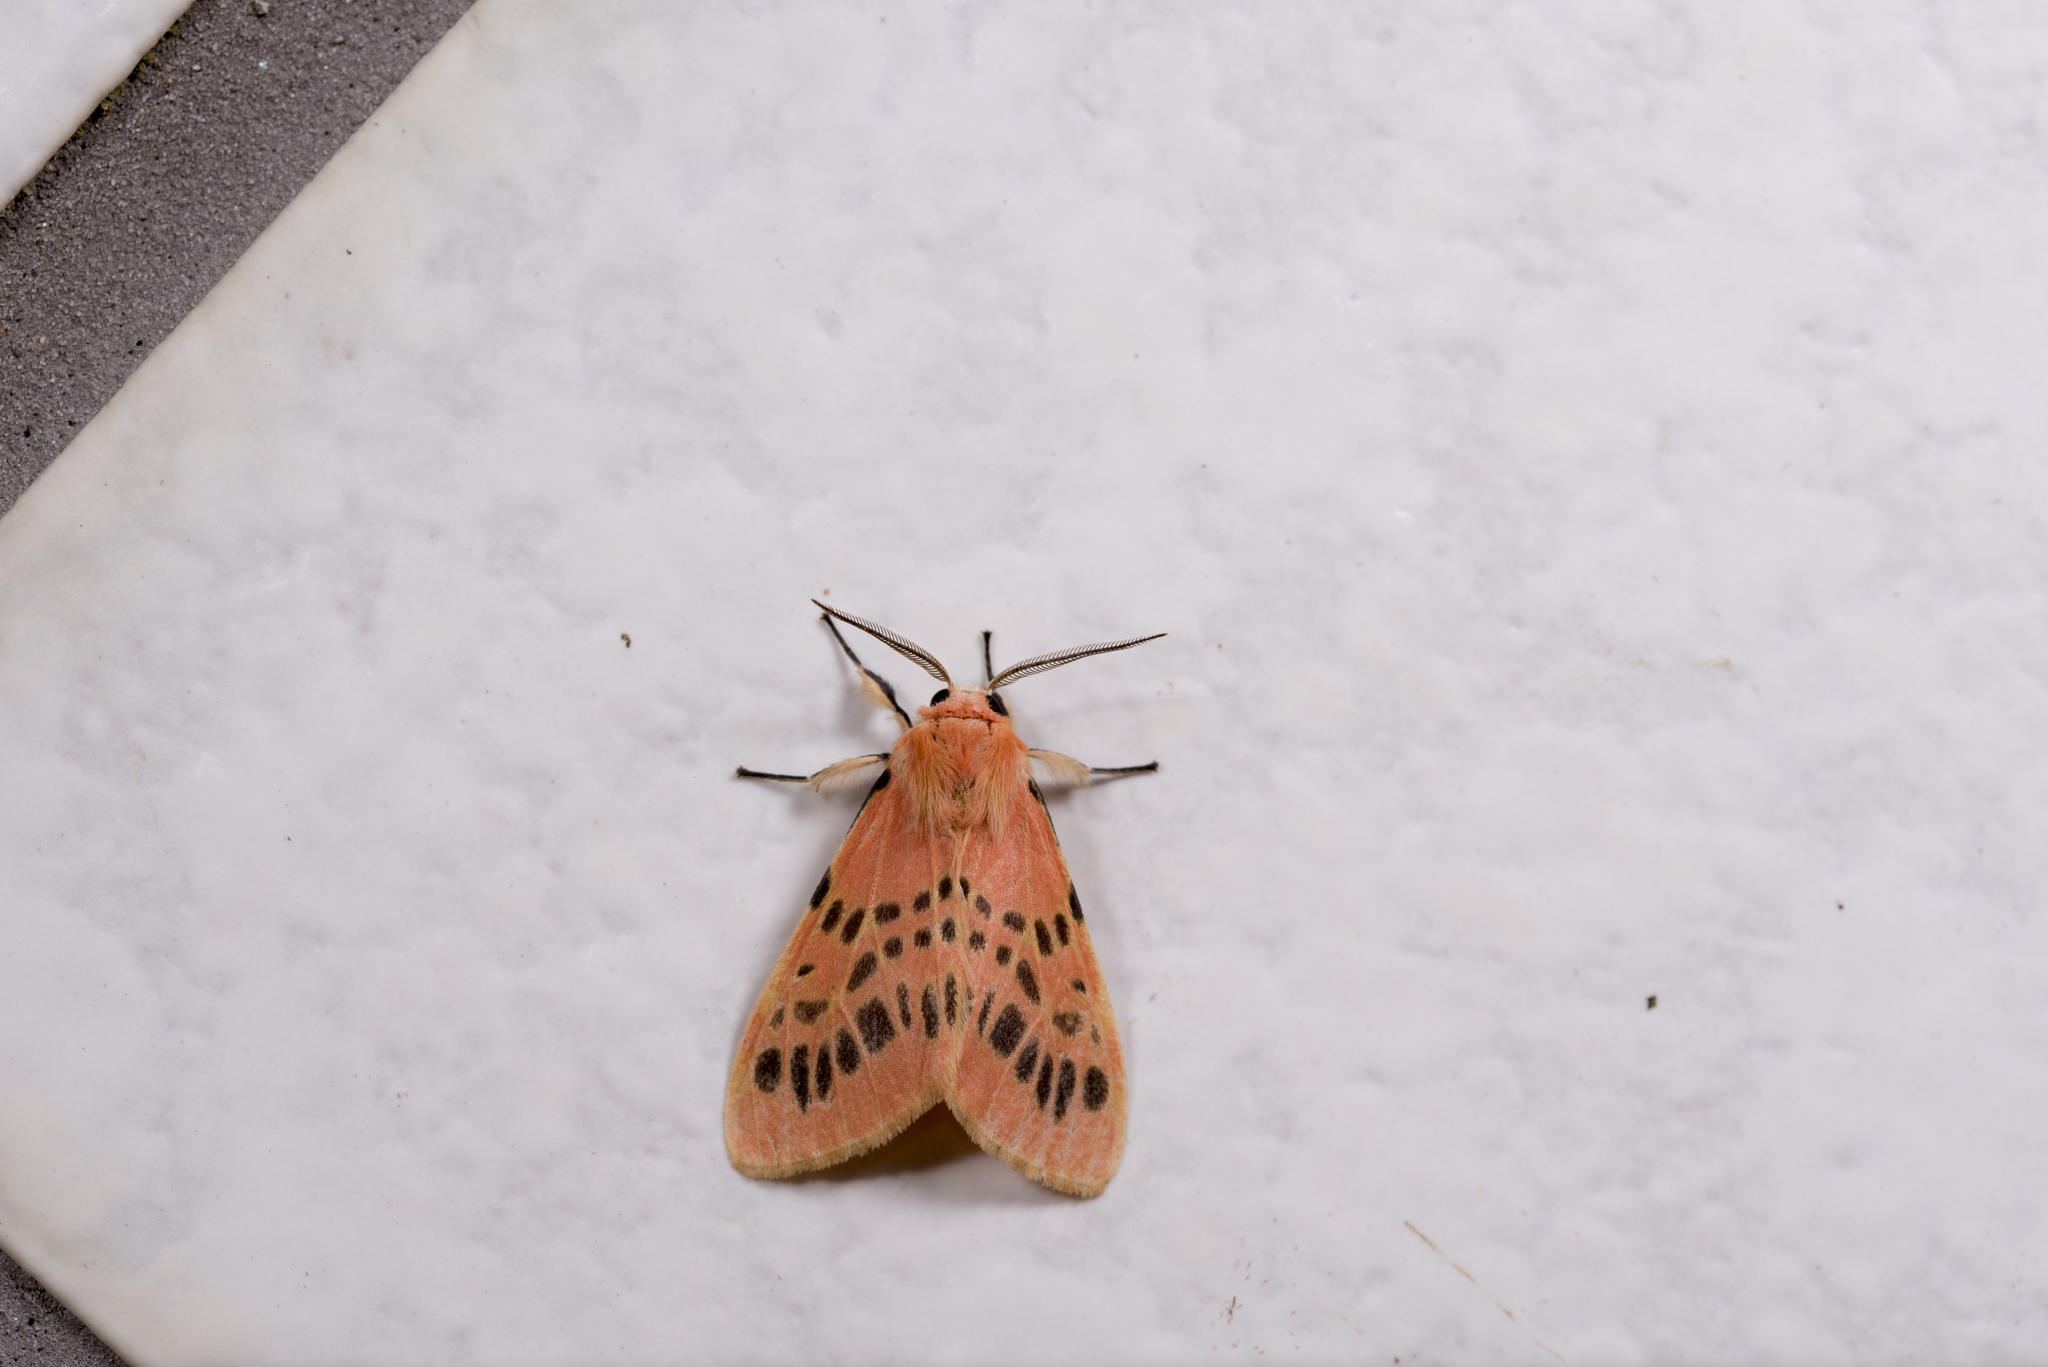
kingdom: Animalia
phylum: Arthropoda
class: Insecta
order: Lepidoptera
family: Erebidae
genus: Lemyra
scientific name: Lemyra alikangensis
